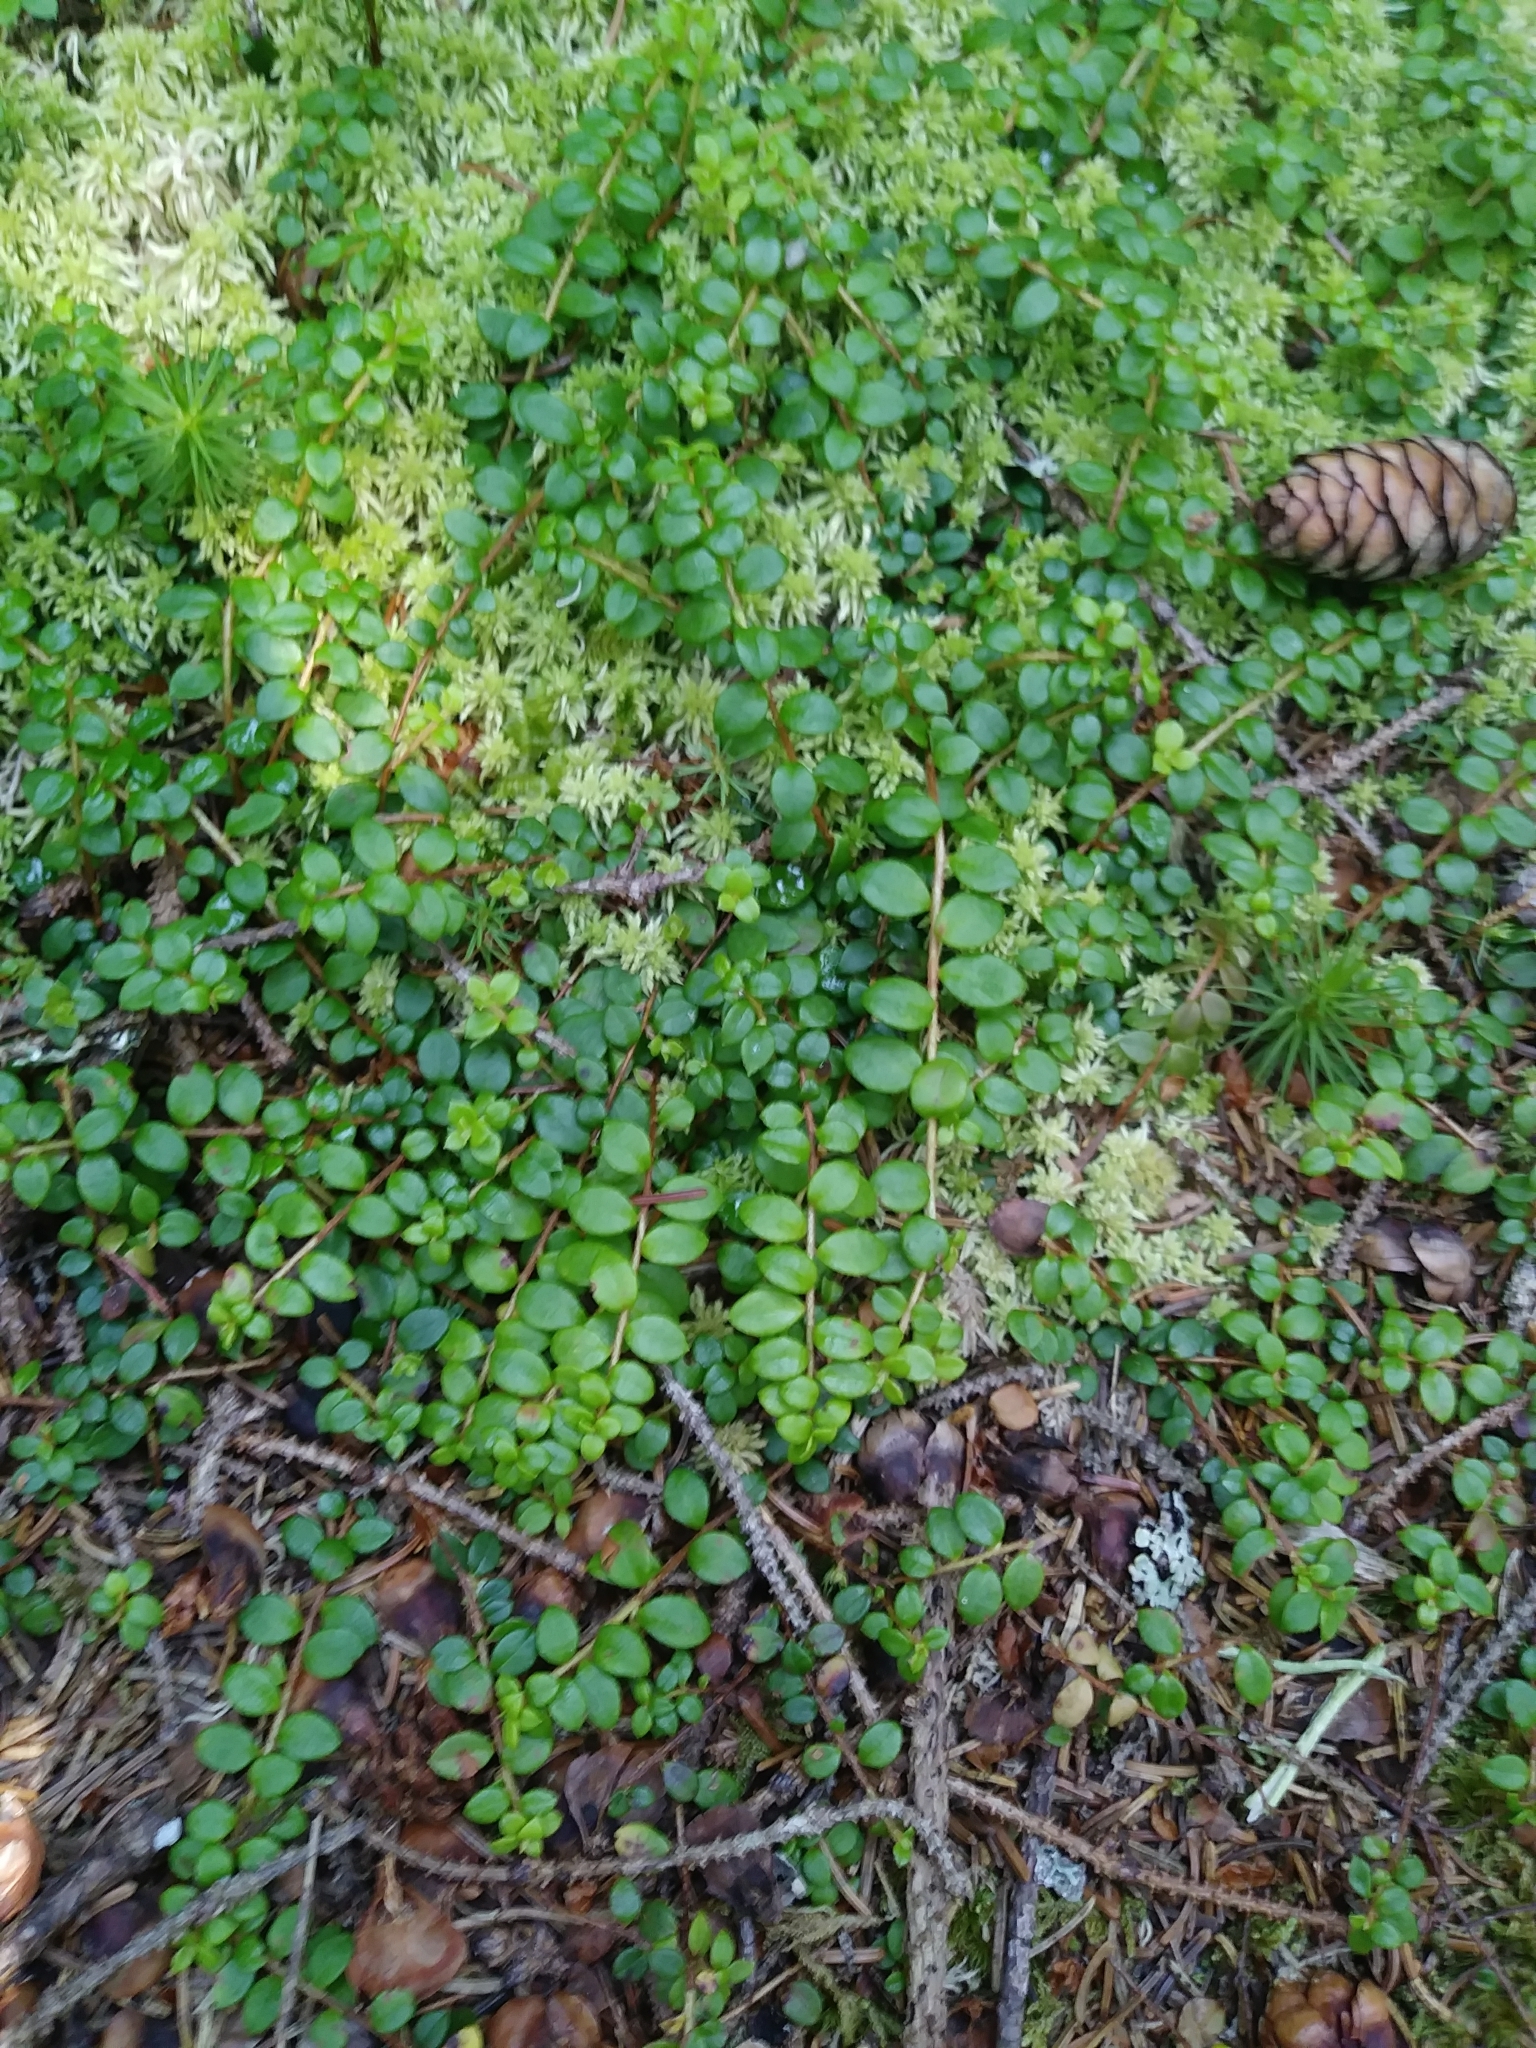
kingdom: Plantae
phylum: Tracheophyta
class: Magnoliopsida
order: Ericales
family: Ericaceae
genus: Gaultheria
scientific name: Gaultheria hispidula
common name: Cancer wintergreen
